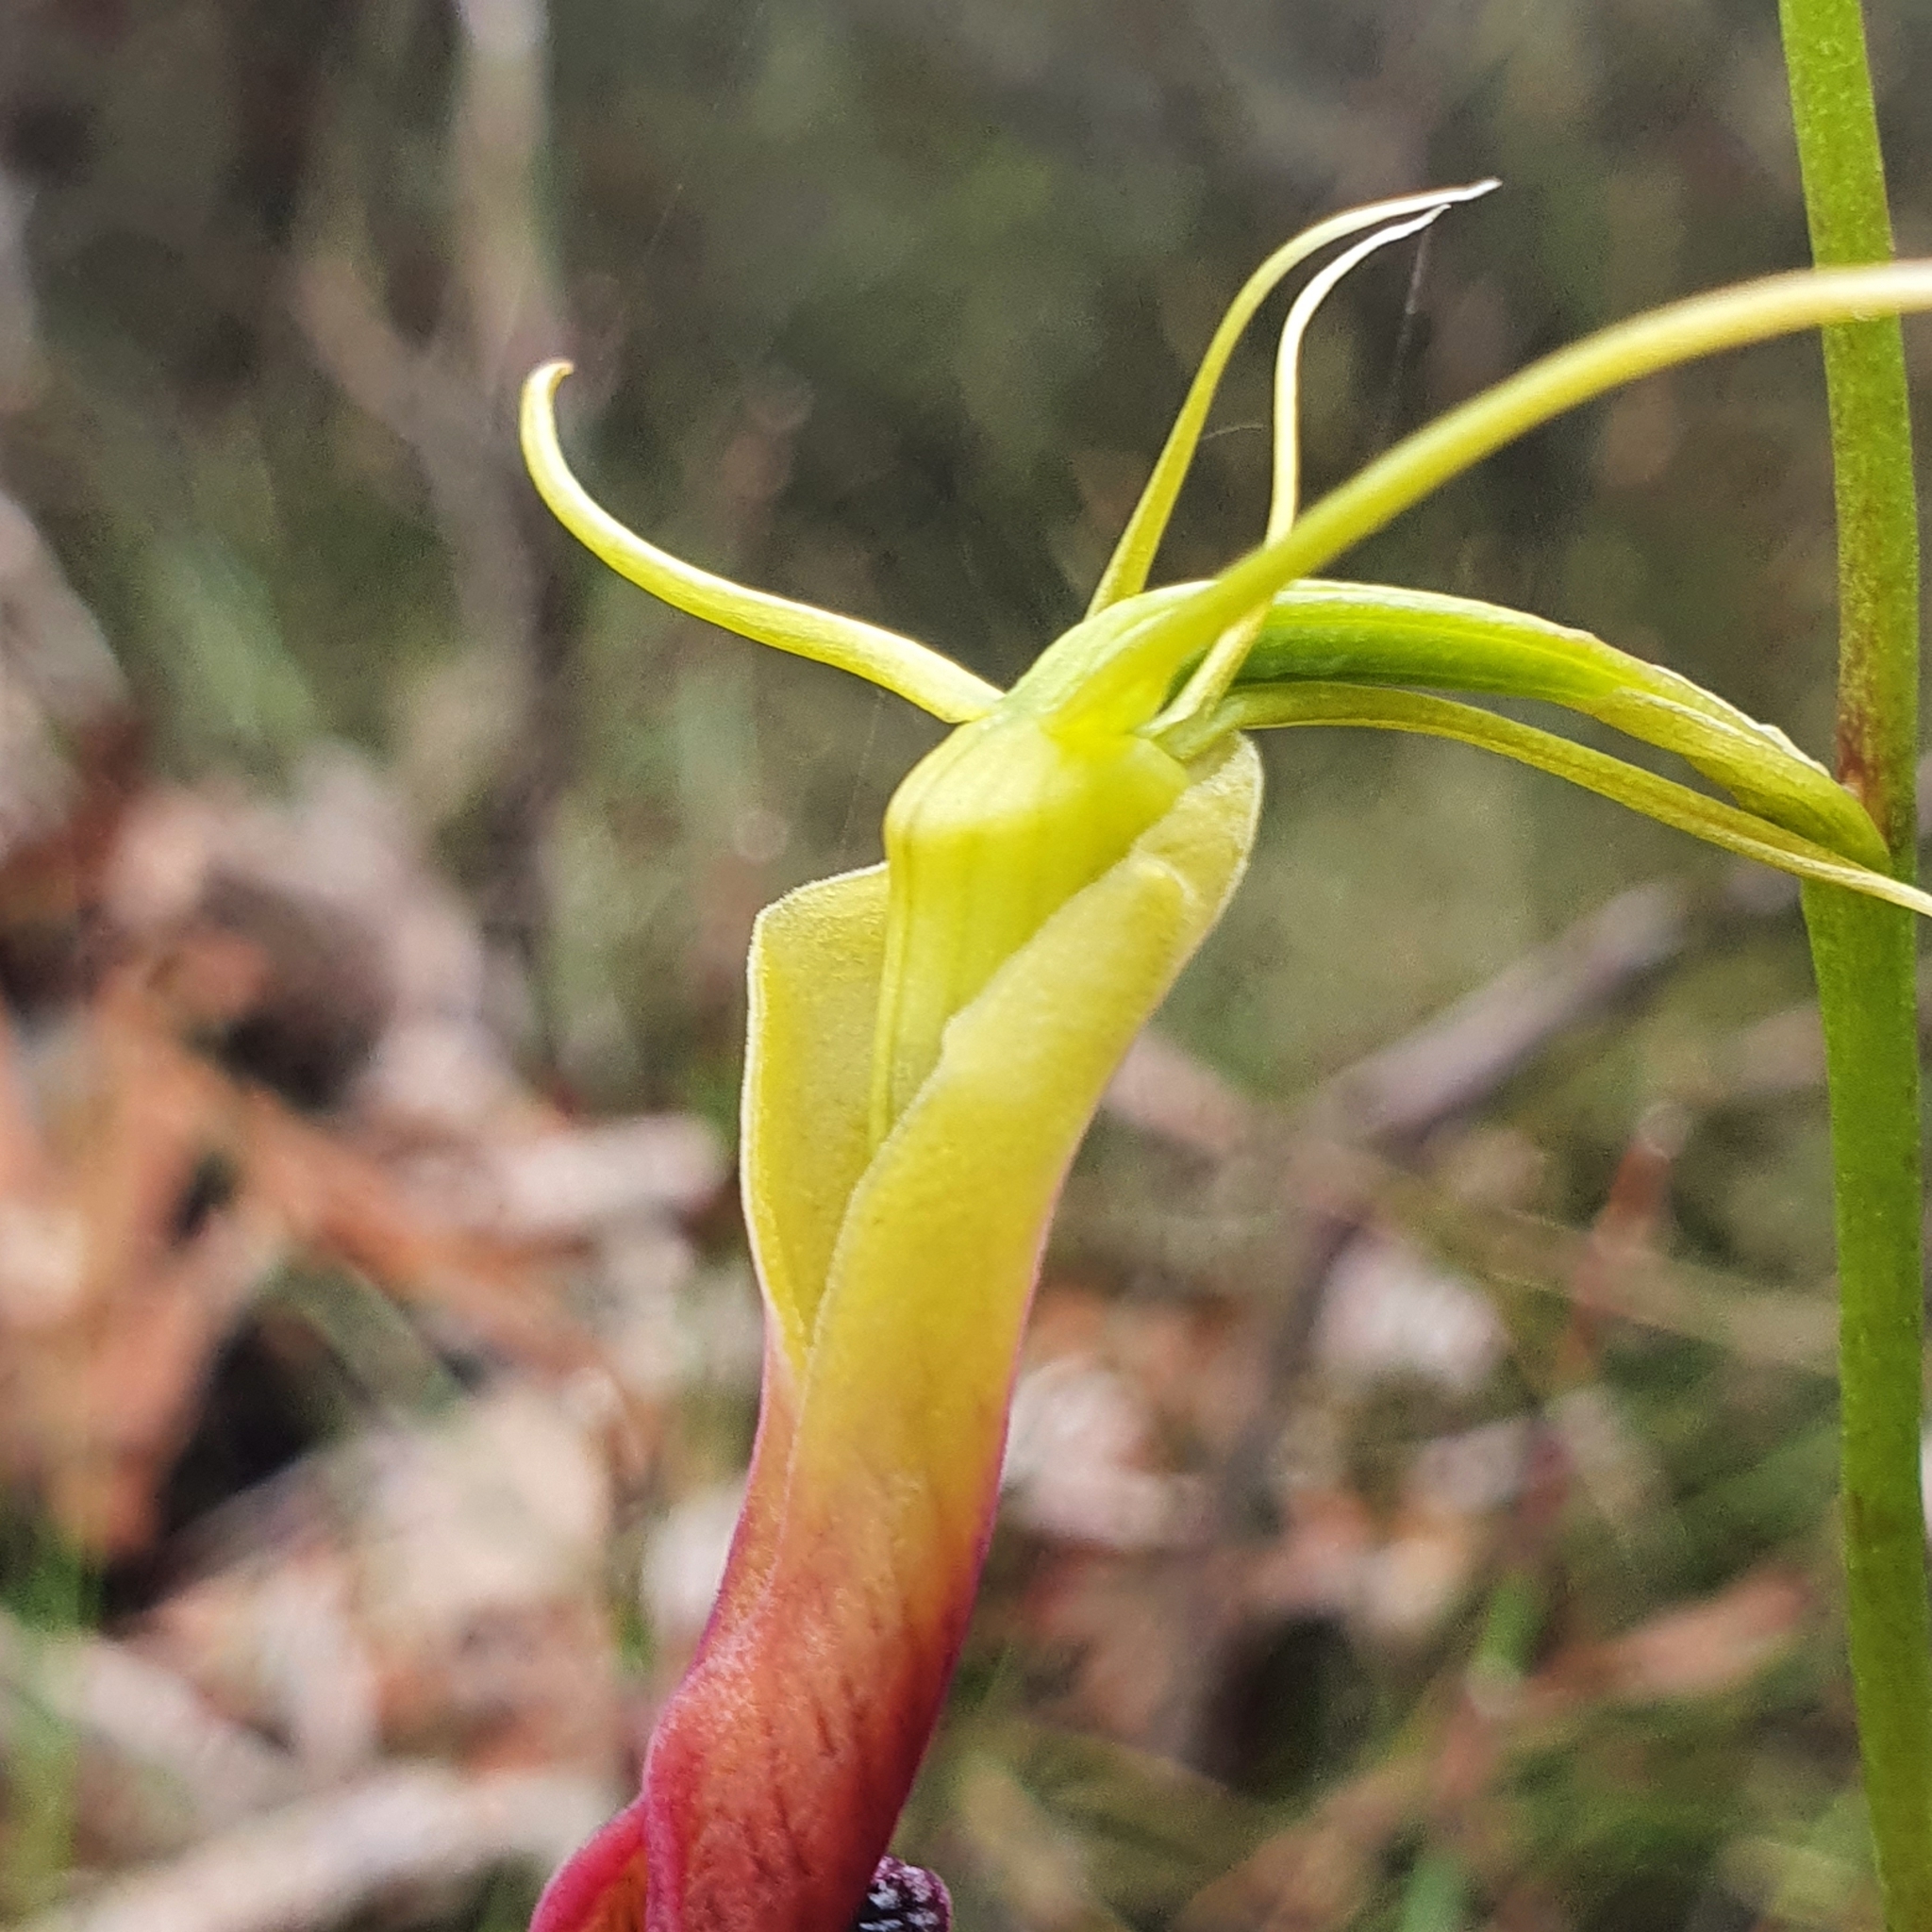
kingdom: Plantae
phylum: Tracheophyta
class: Liliopsida
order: Asparagales
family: Orchidaceae
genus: Cryptostylis
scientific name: Cryptostylis subulata
